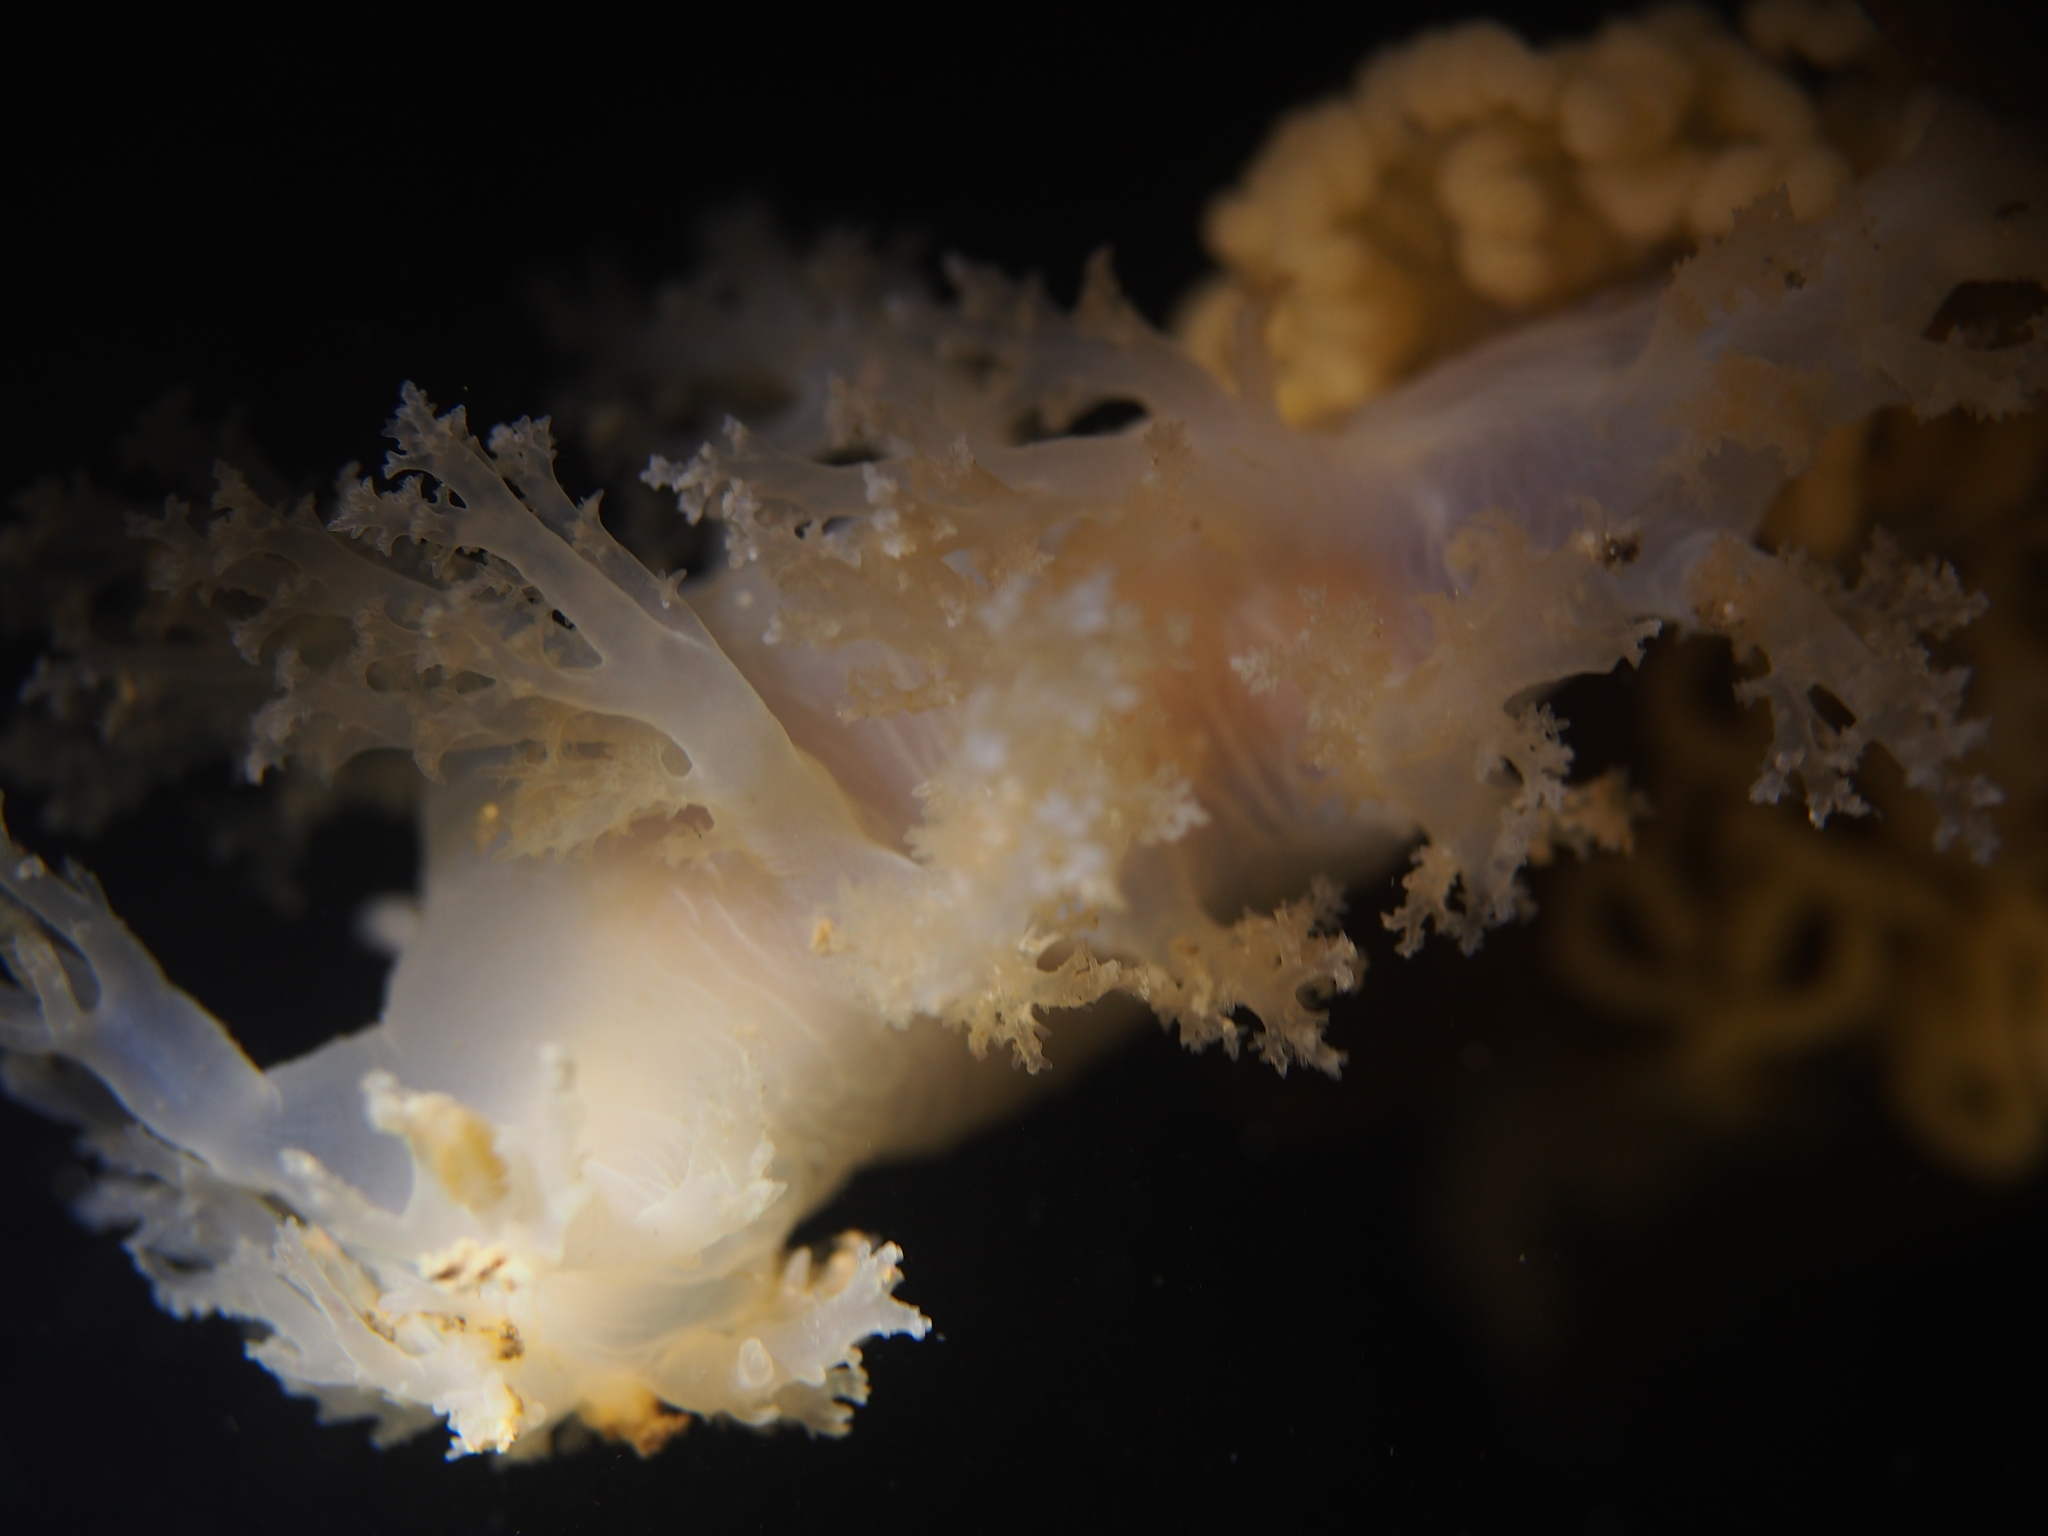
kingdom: Animalia
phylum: Mollusca
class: Gastropoda
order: Nudibranchia
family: Dendronotidae
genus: Dendronotus
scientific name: Dendronotus lacteus
